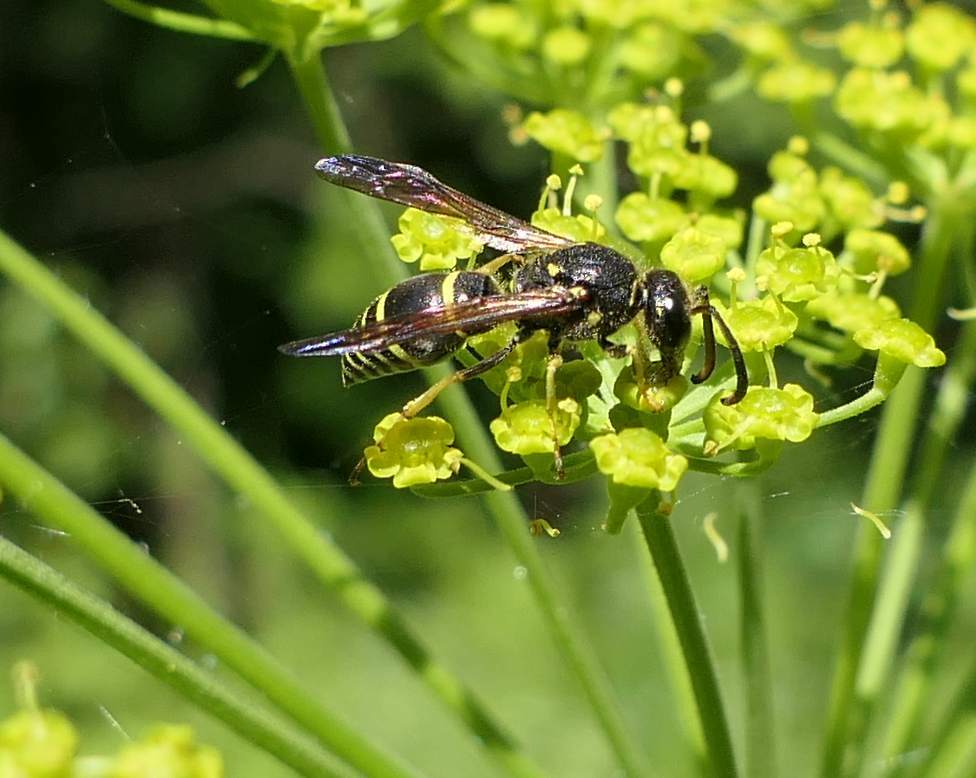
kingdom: Animalia
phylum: Arthropoda
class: Insecta
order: Hymenoptera
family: Vespidae
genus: Ancistrocerus
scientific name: Ancistrocerus
